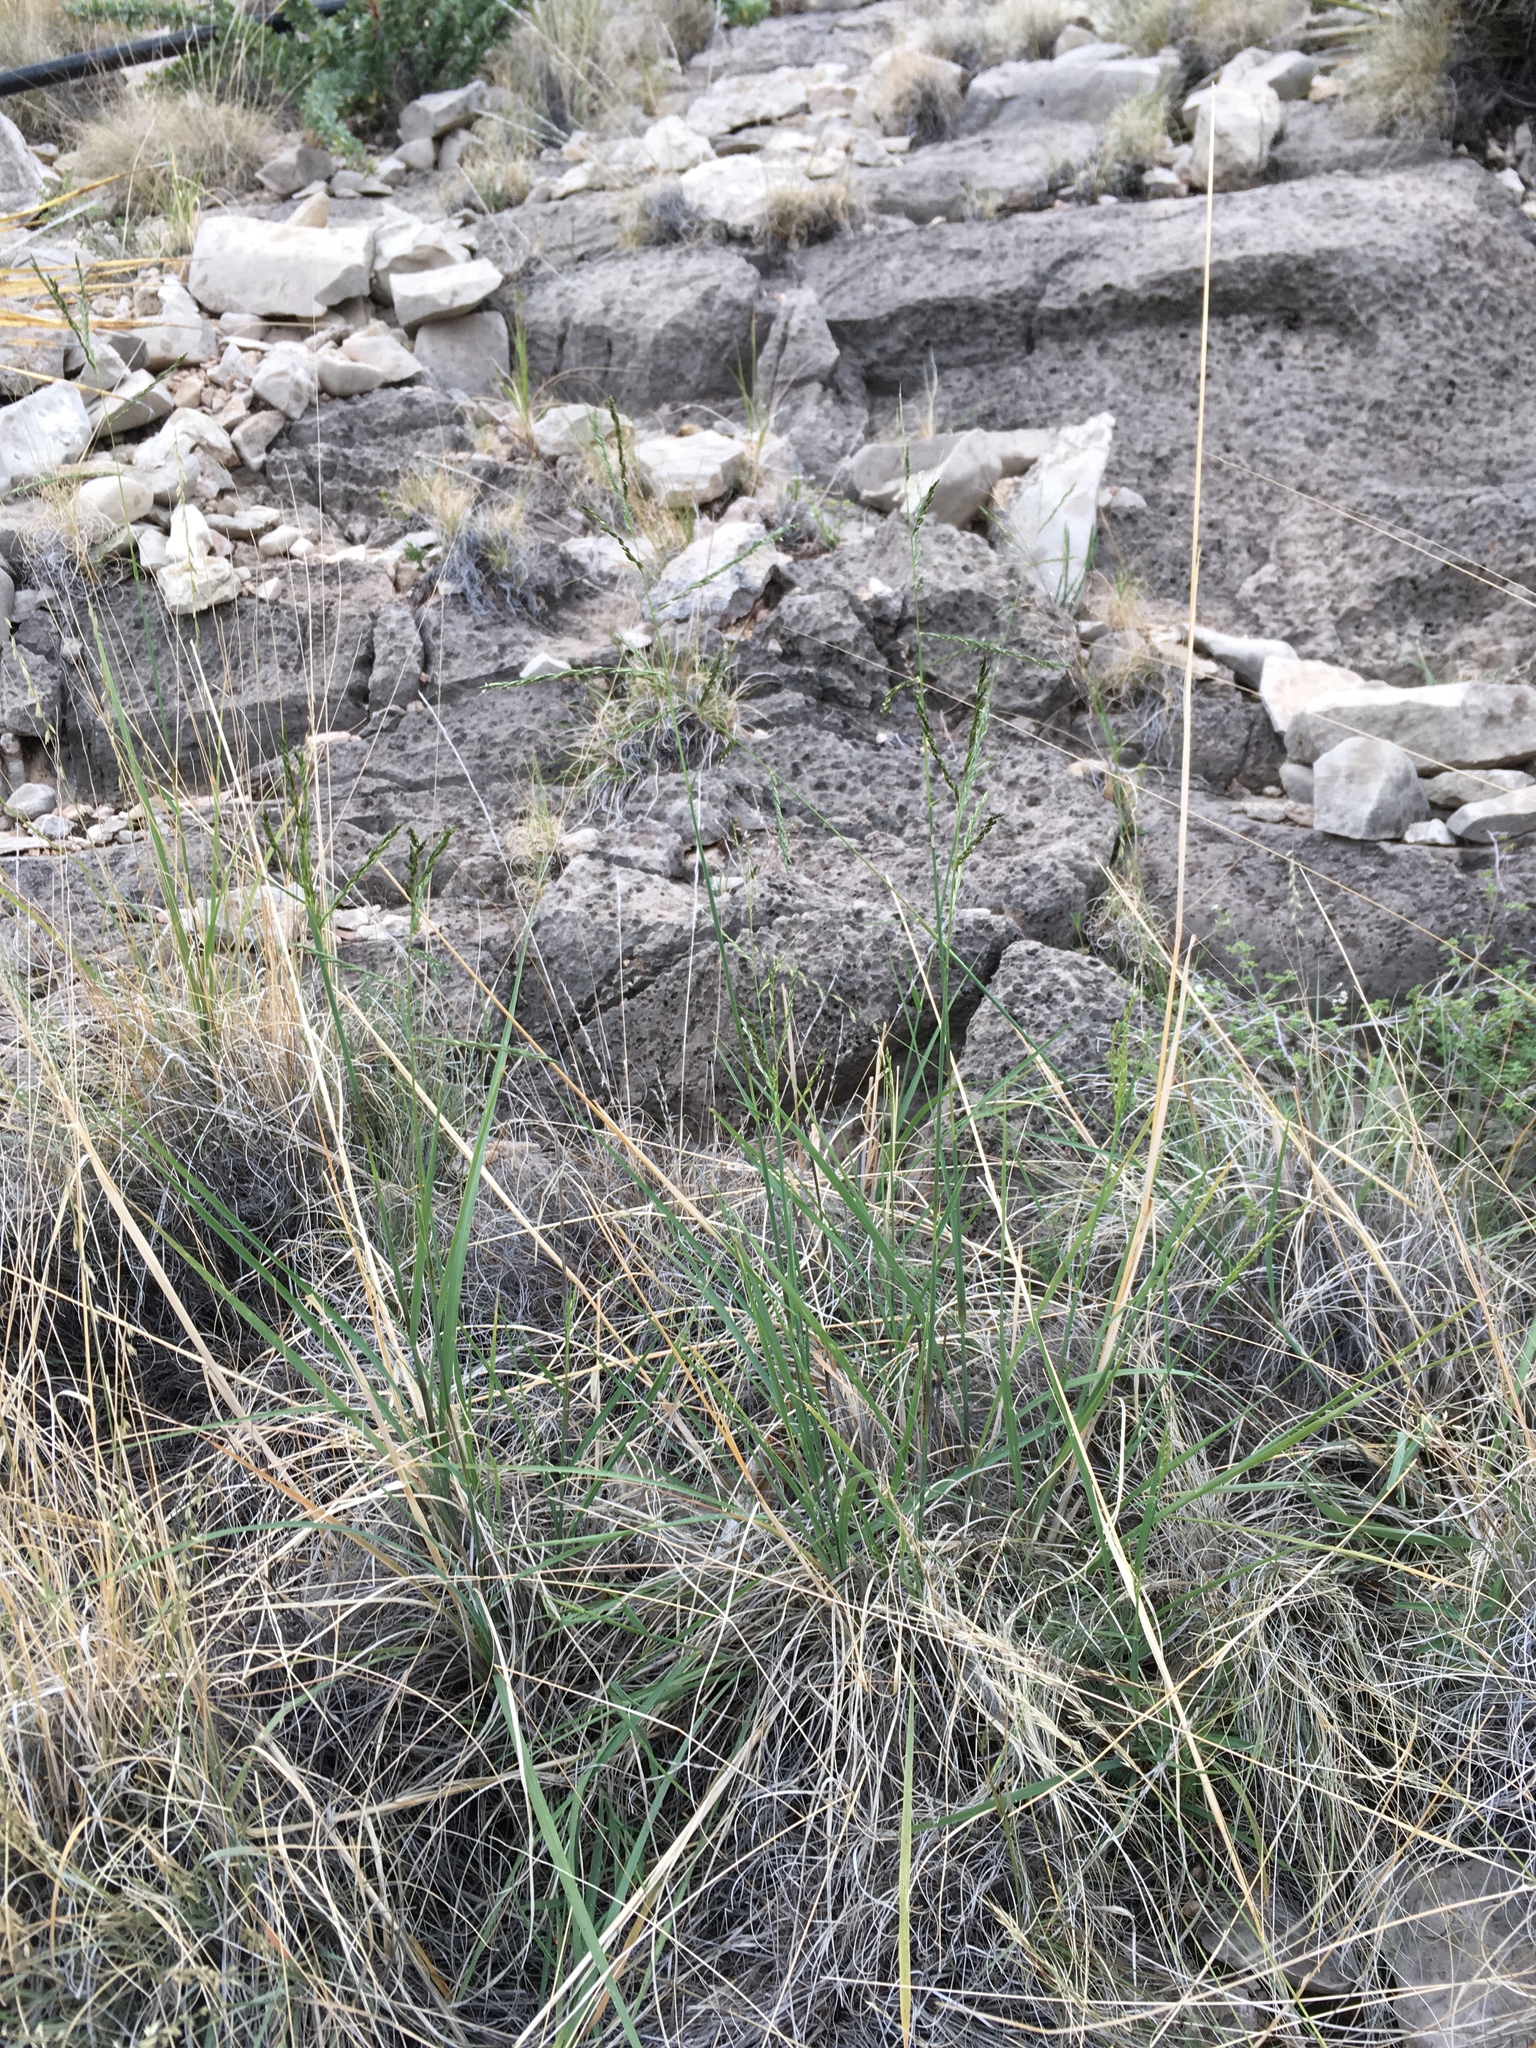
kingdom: Plantae
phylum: Tracheophyta
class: Liliopsida
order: Poales
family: Poaceae
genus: Disakisperma
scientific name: Disakisperma dubium
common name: Green sprangletop
